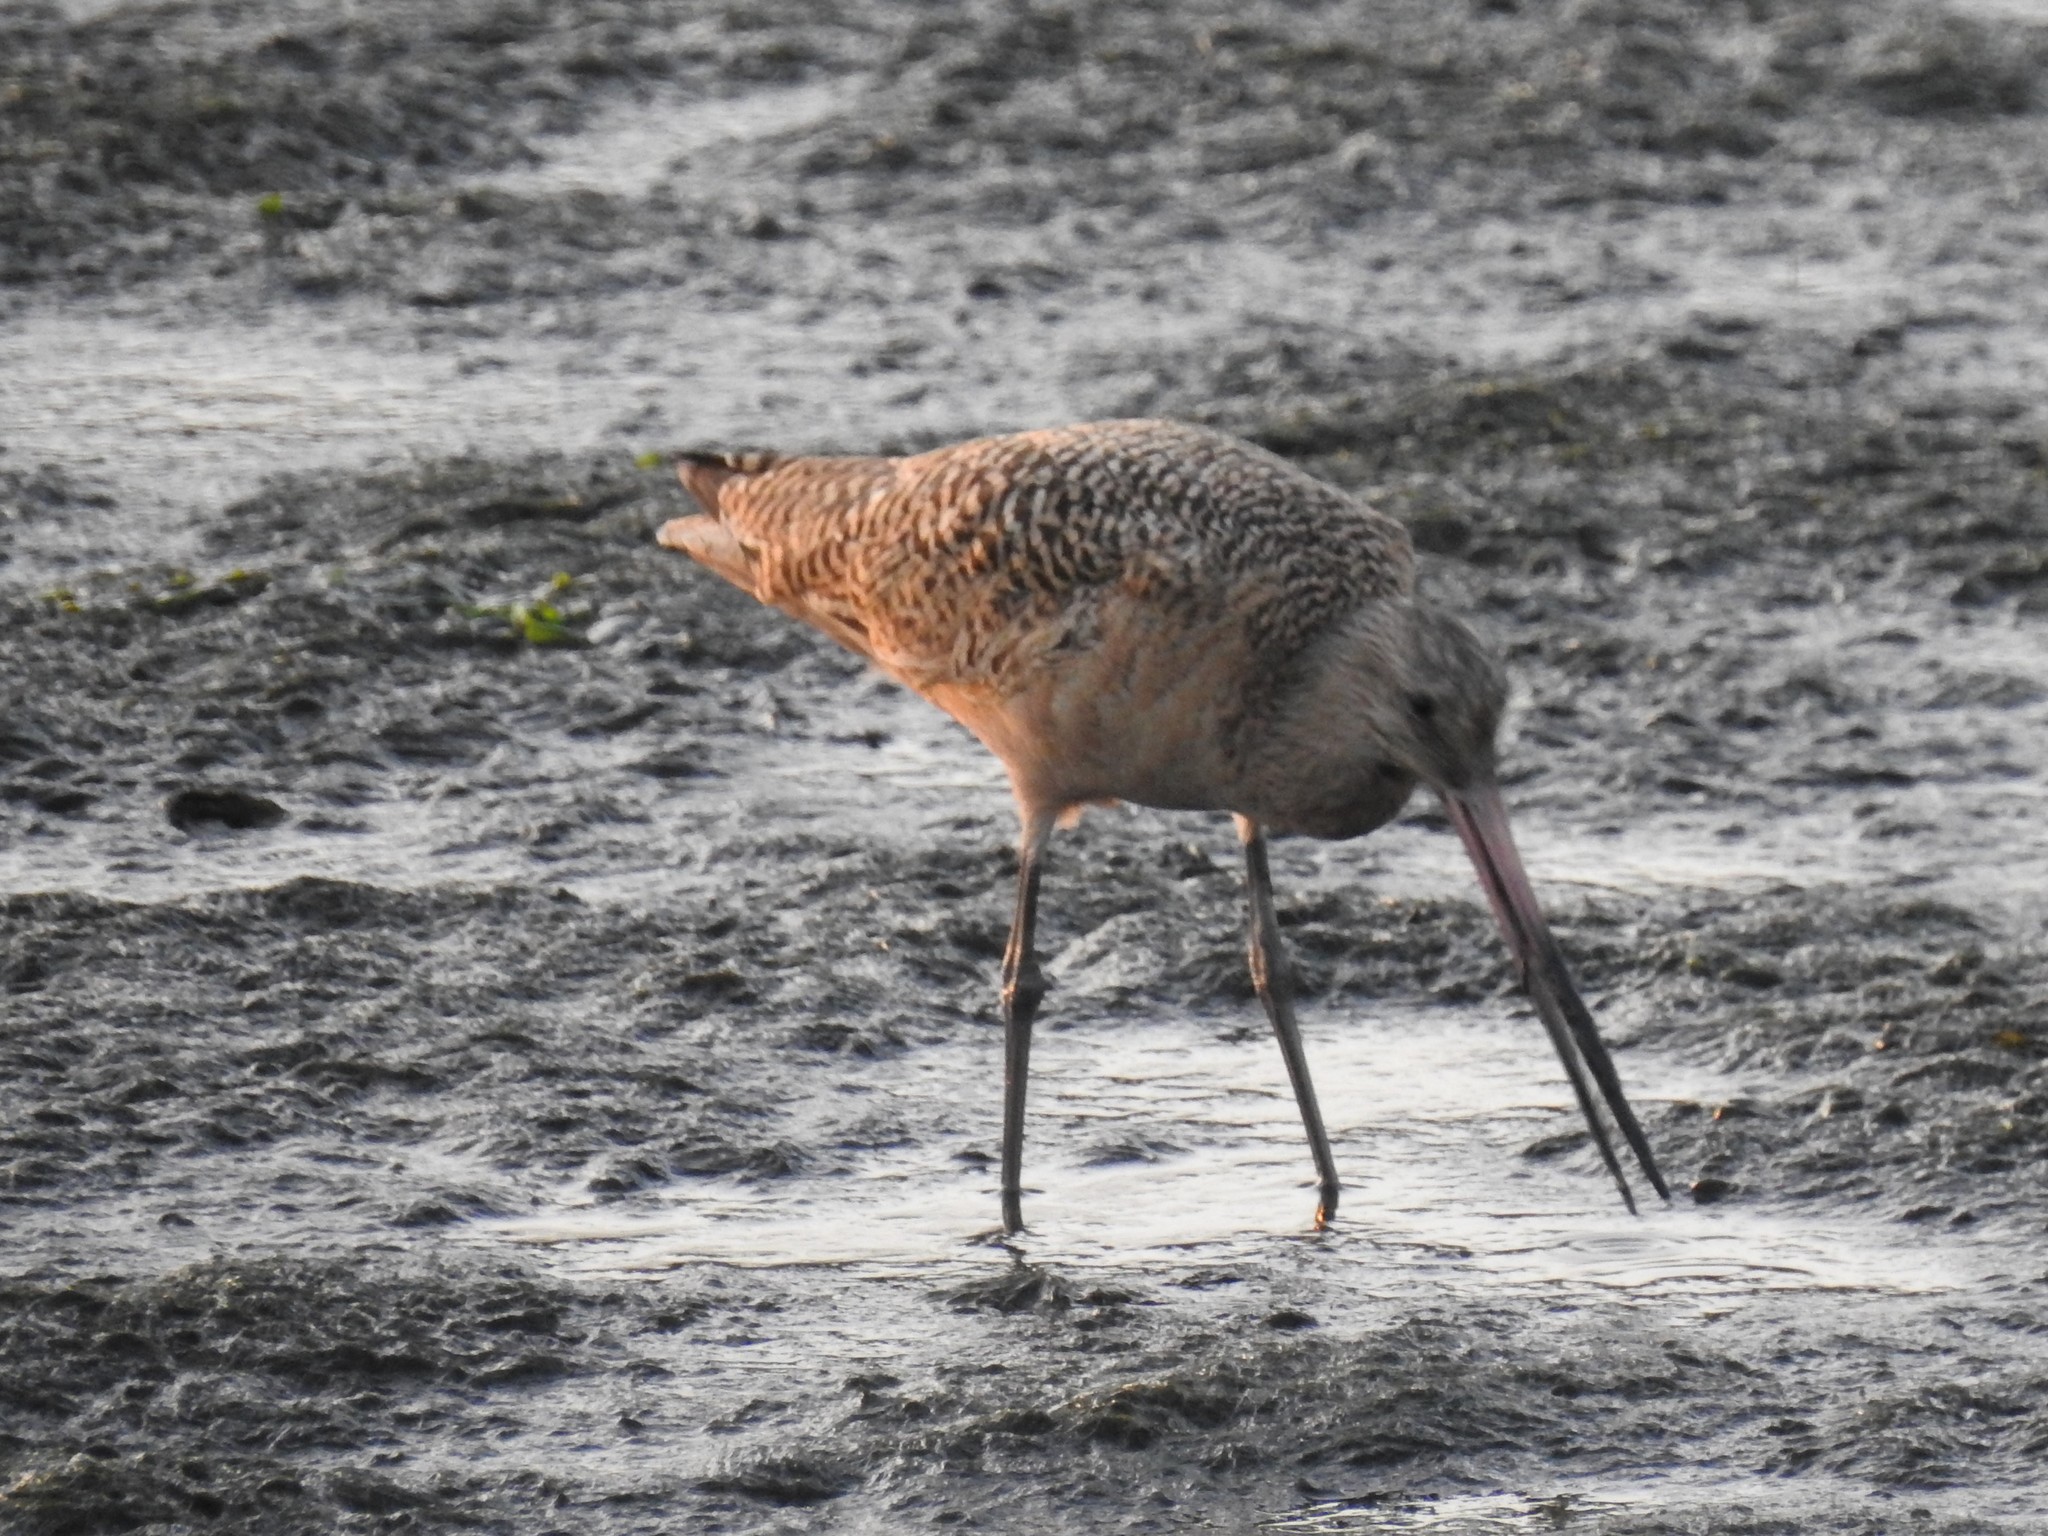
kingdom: Animalia
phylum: Chordata
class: Aves
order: Charadriiformes
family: Scolopacidae
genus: Limosa
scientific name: Limosa fedoa
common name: Marbled godwit
